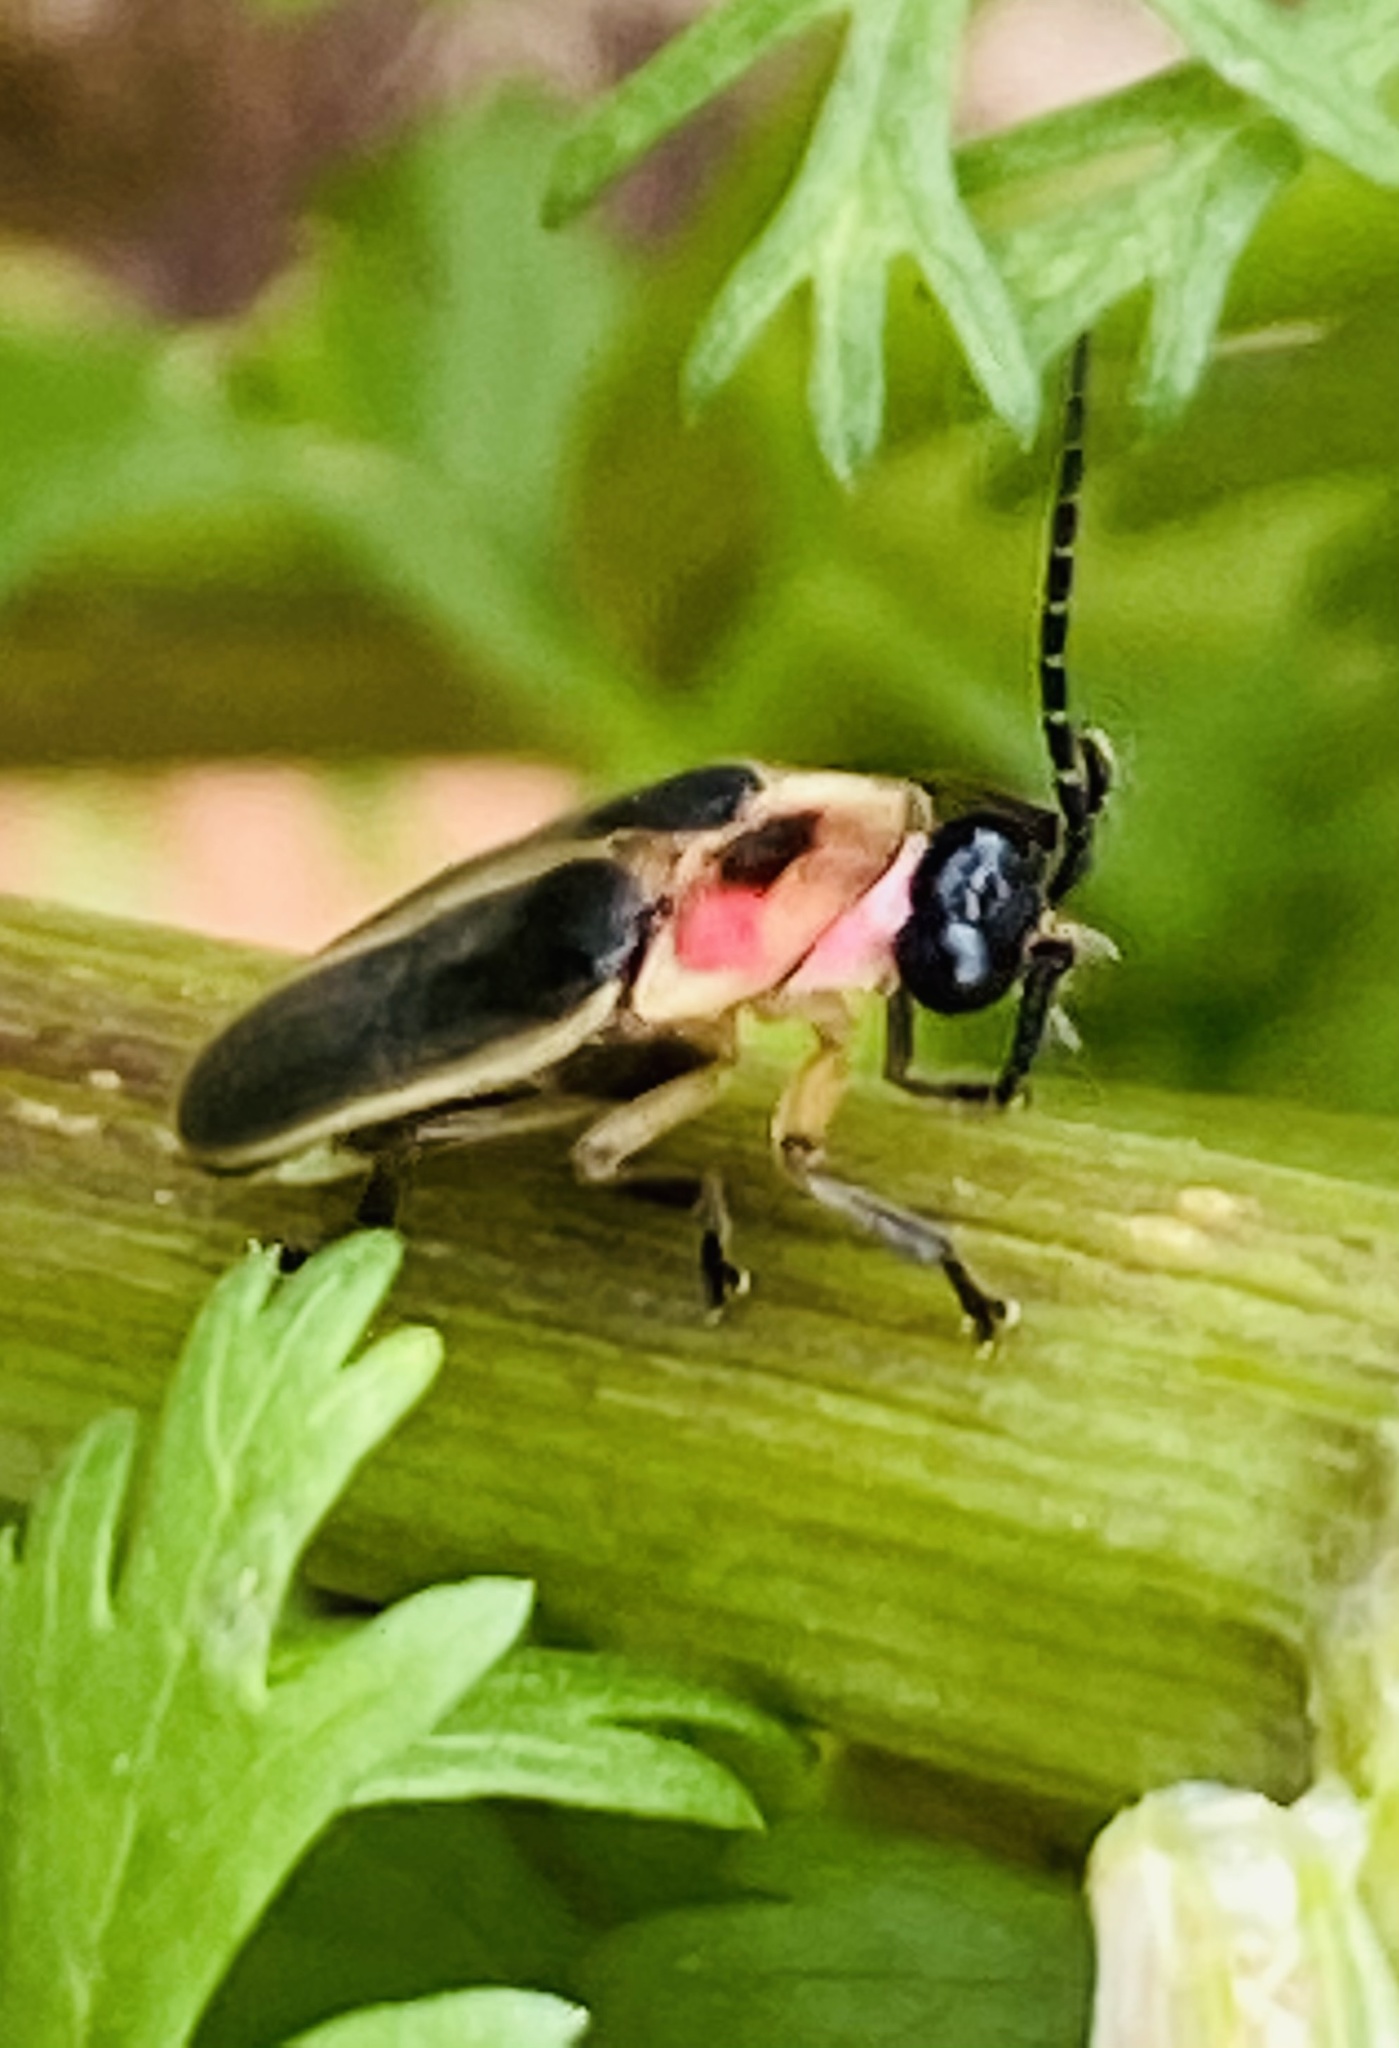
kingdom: Animalia
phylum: Arthropoda
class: Insecta
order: Coleoptera
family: Lampyridae
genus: Photinus
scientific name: Photinus pyralis
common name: Big dipper firefly
